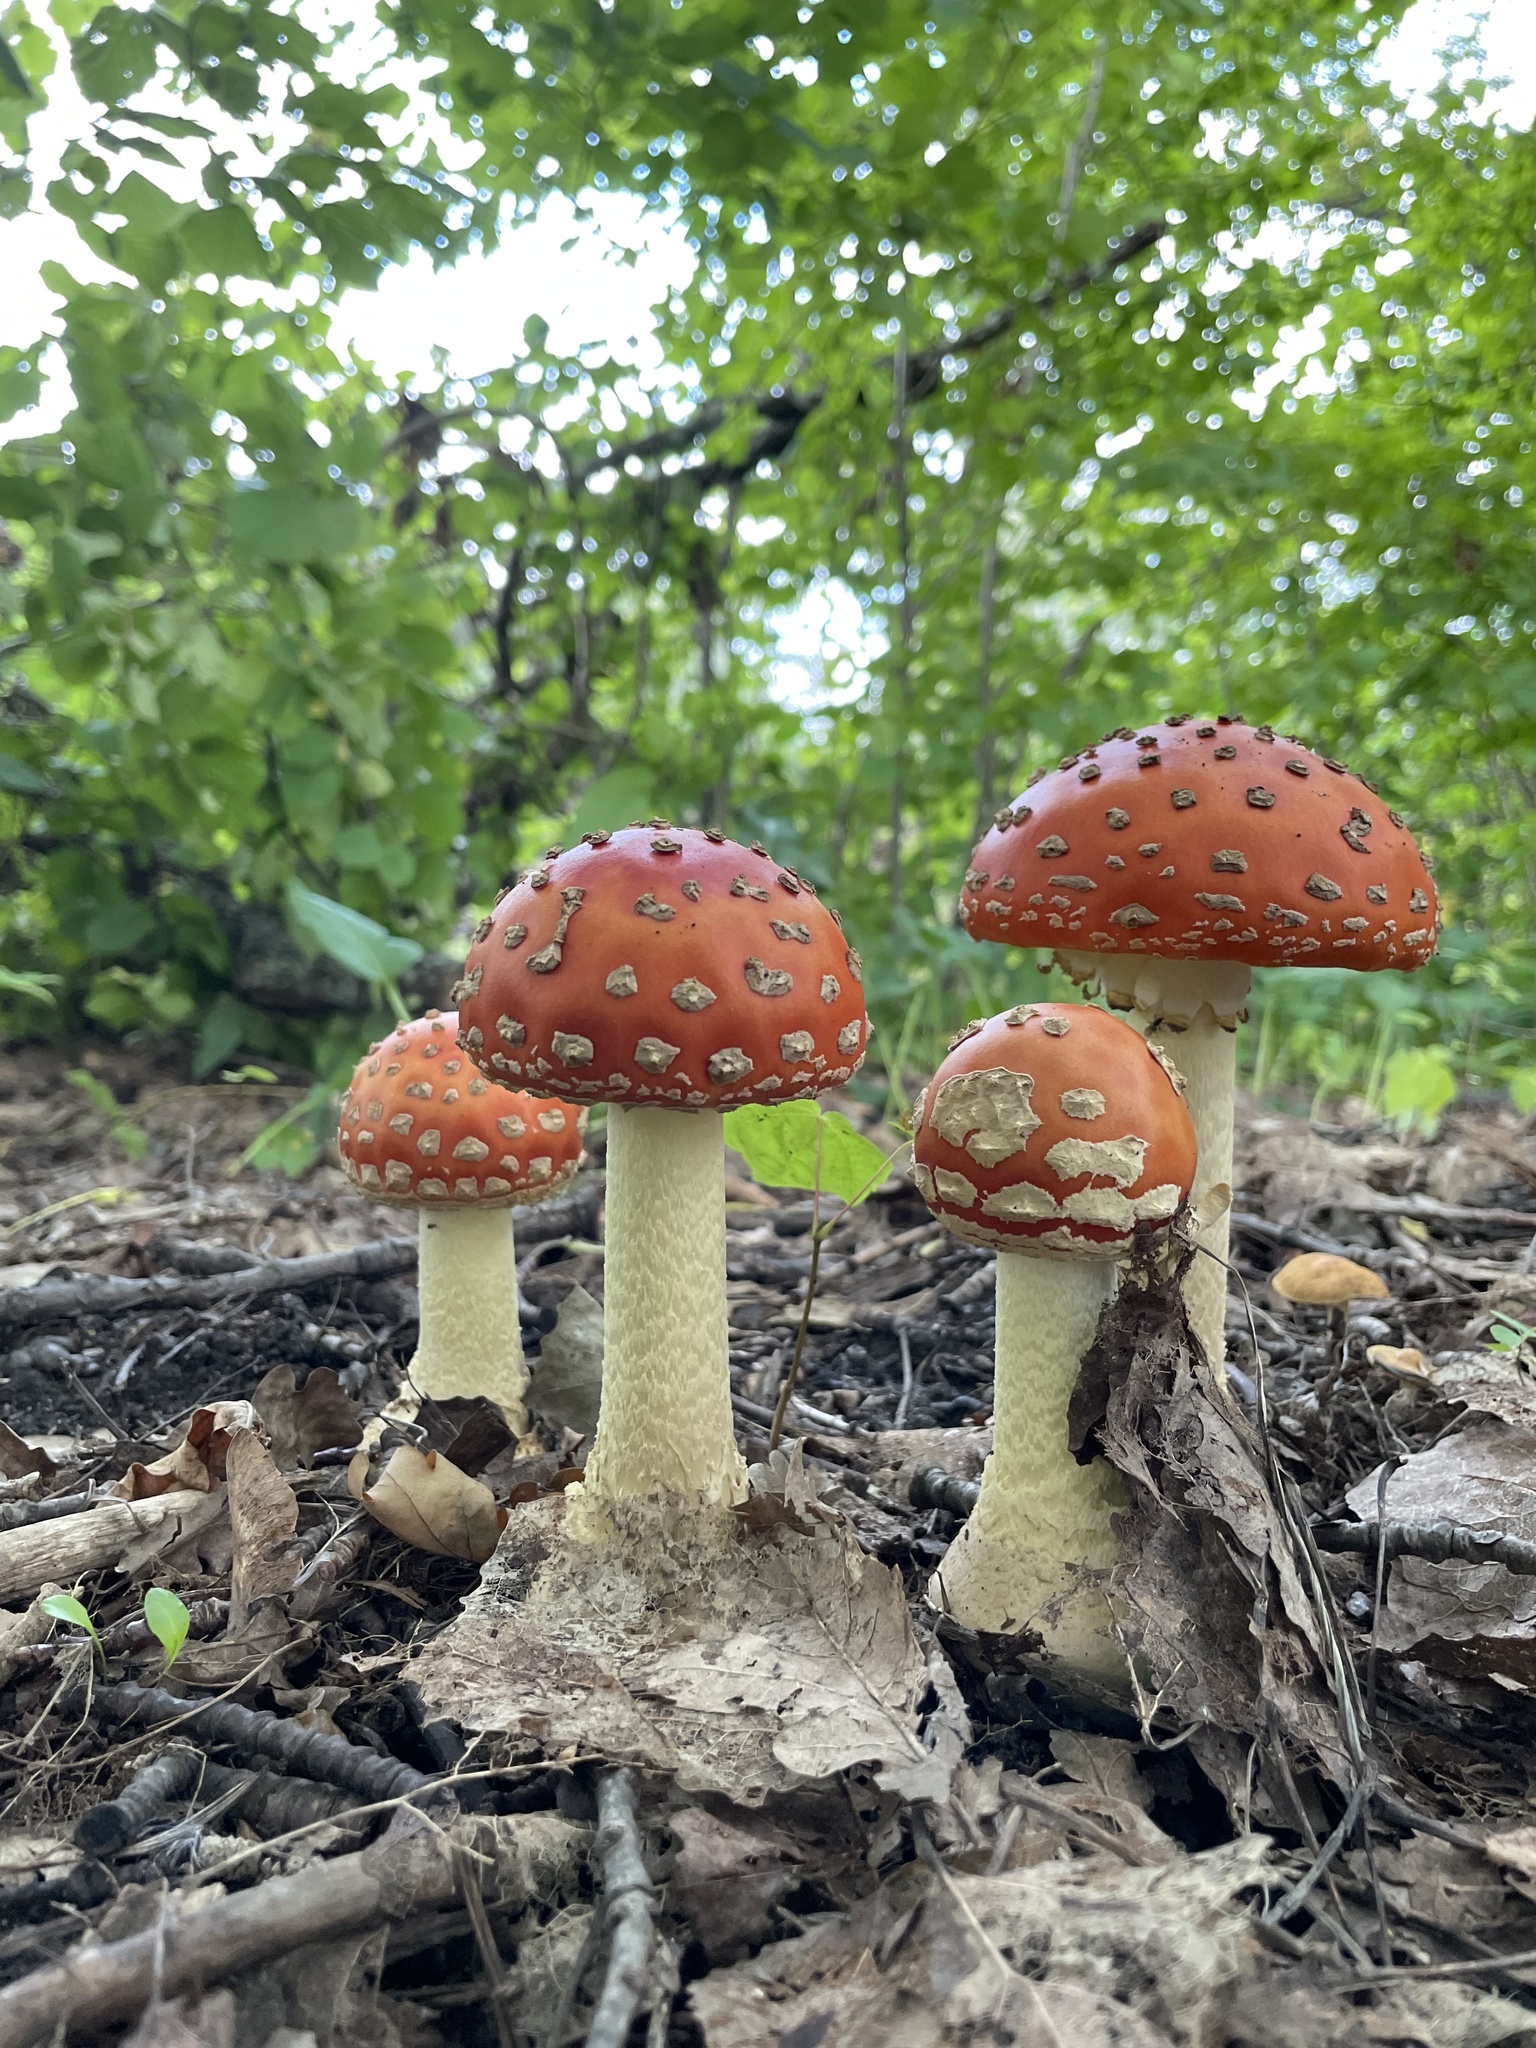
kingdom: Fungi
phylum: Basidiomycota
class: Agaricomycetes
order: Agaricales
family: Amanitaceae
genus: Amanita
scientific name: Amanita muscaria
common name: Fly agaric
